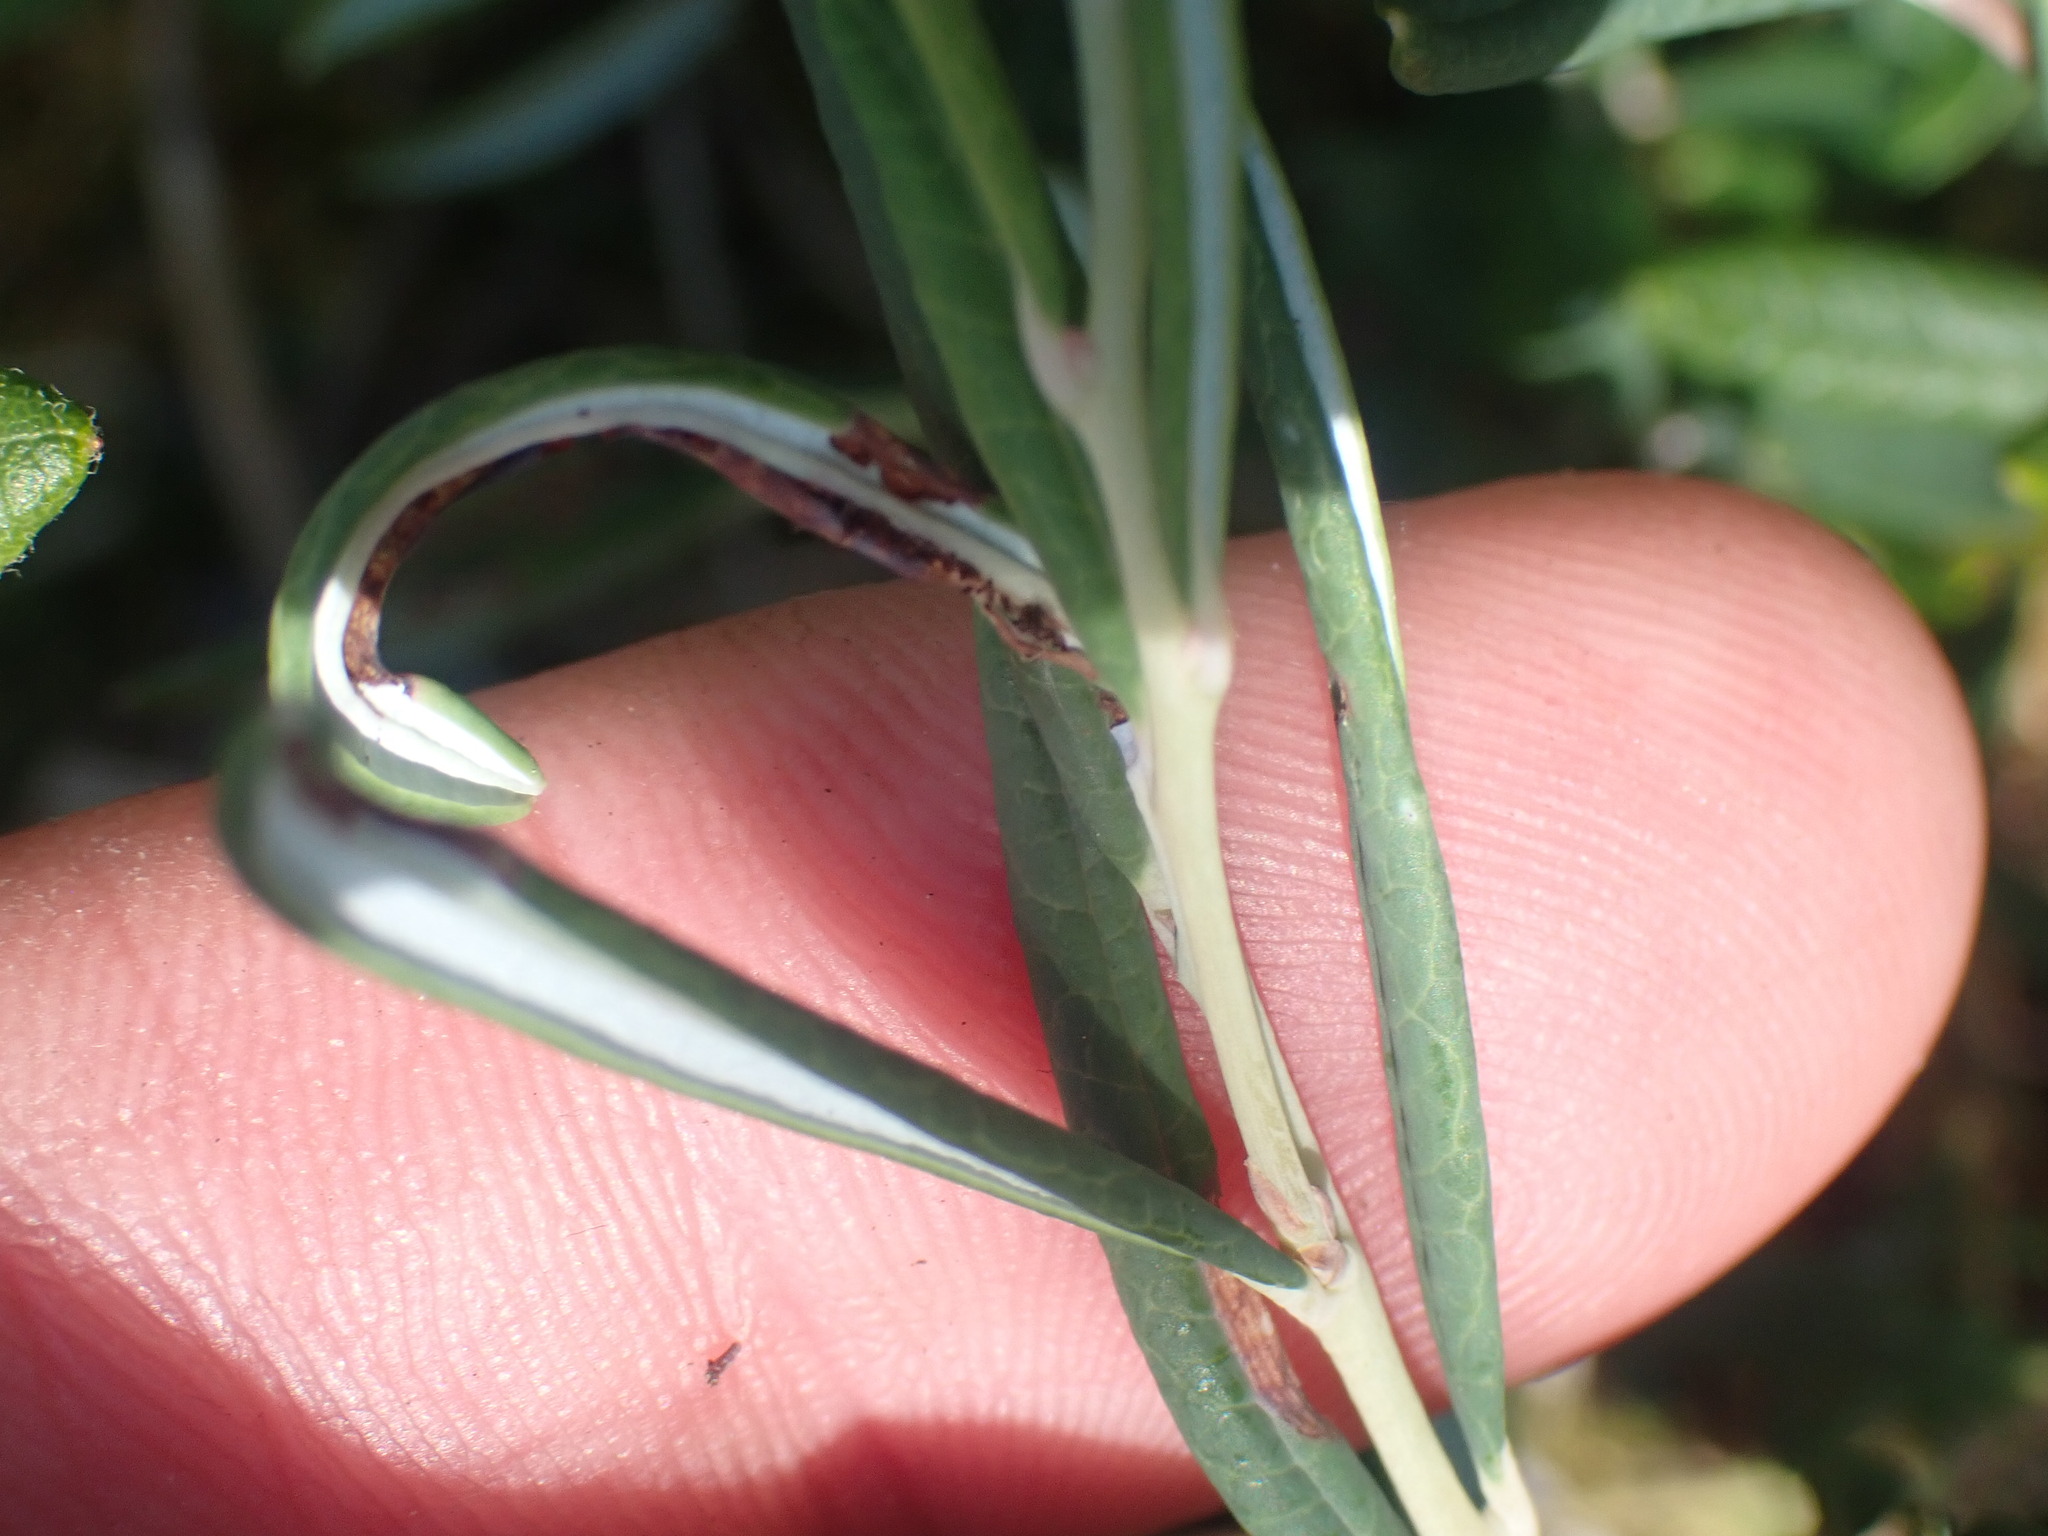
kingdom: Plantae
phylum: Tracheophyta
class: Magnoliopsida
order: Ericales
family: Ericaceae
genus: Andromeda
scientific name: Andromeda polifolia
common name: Bog-rosemary
